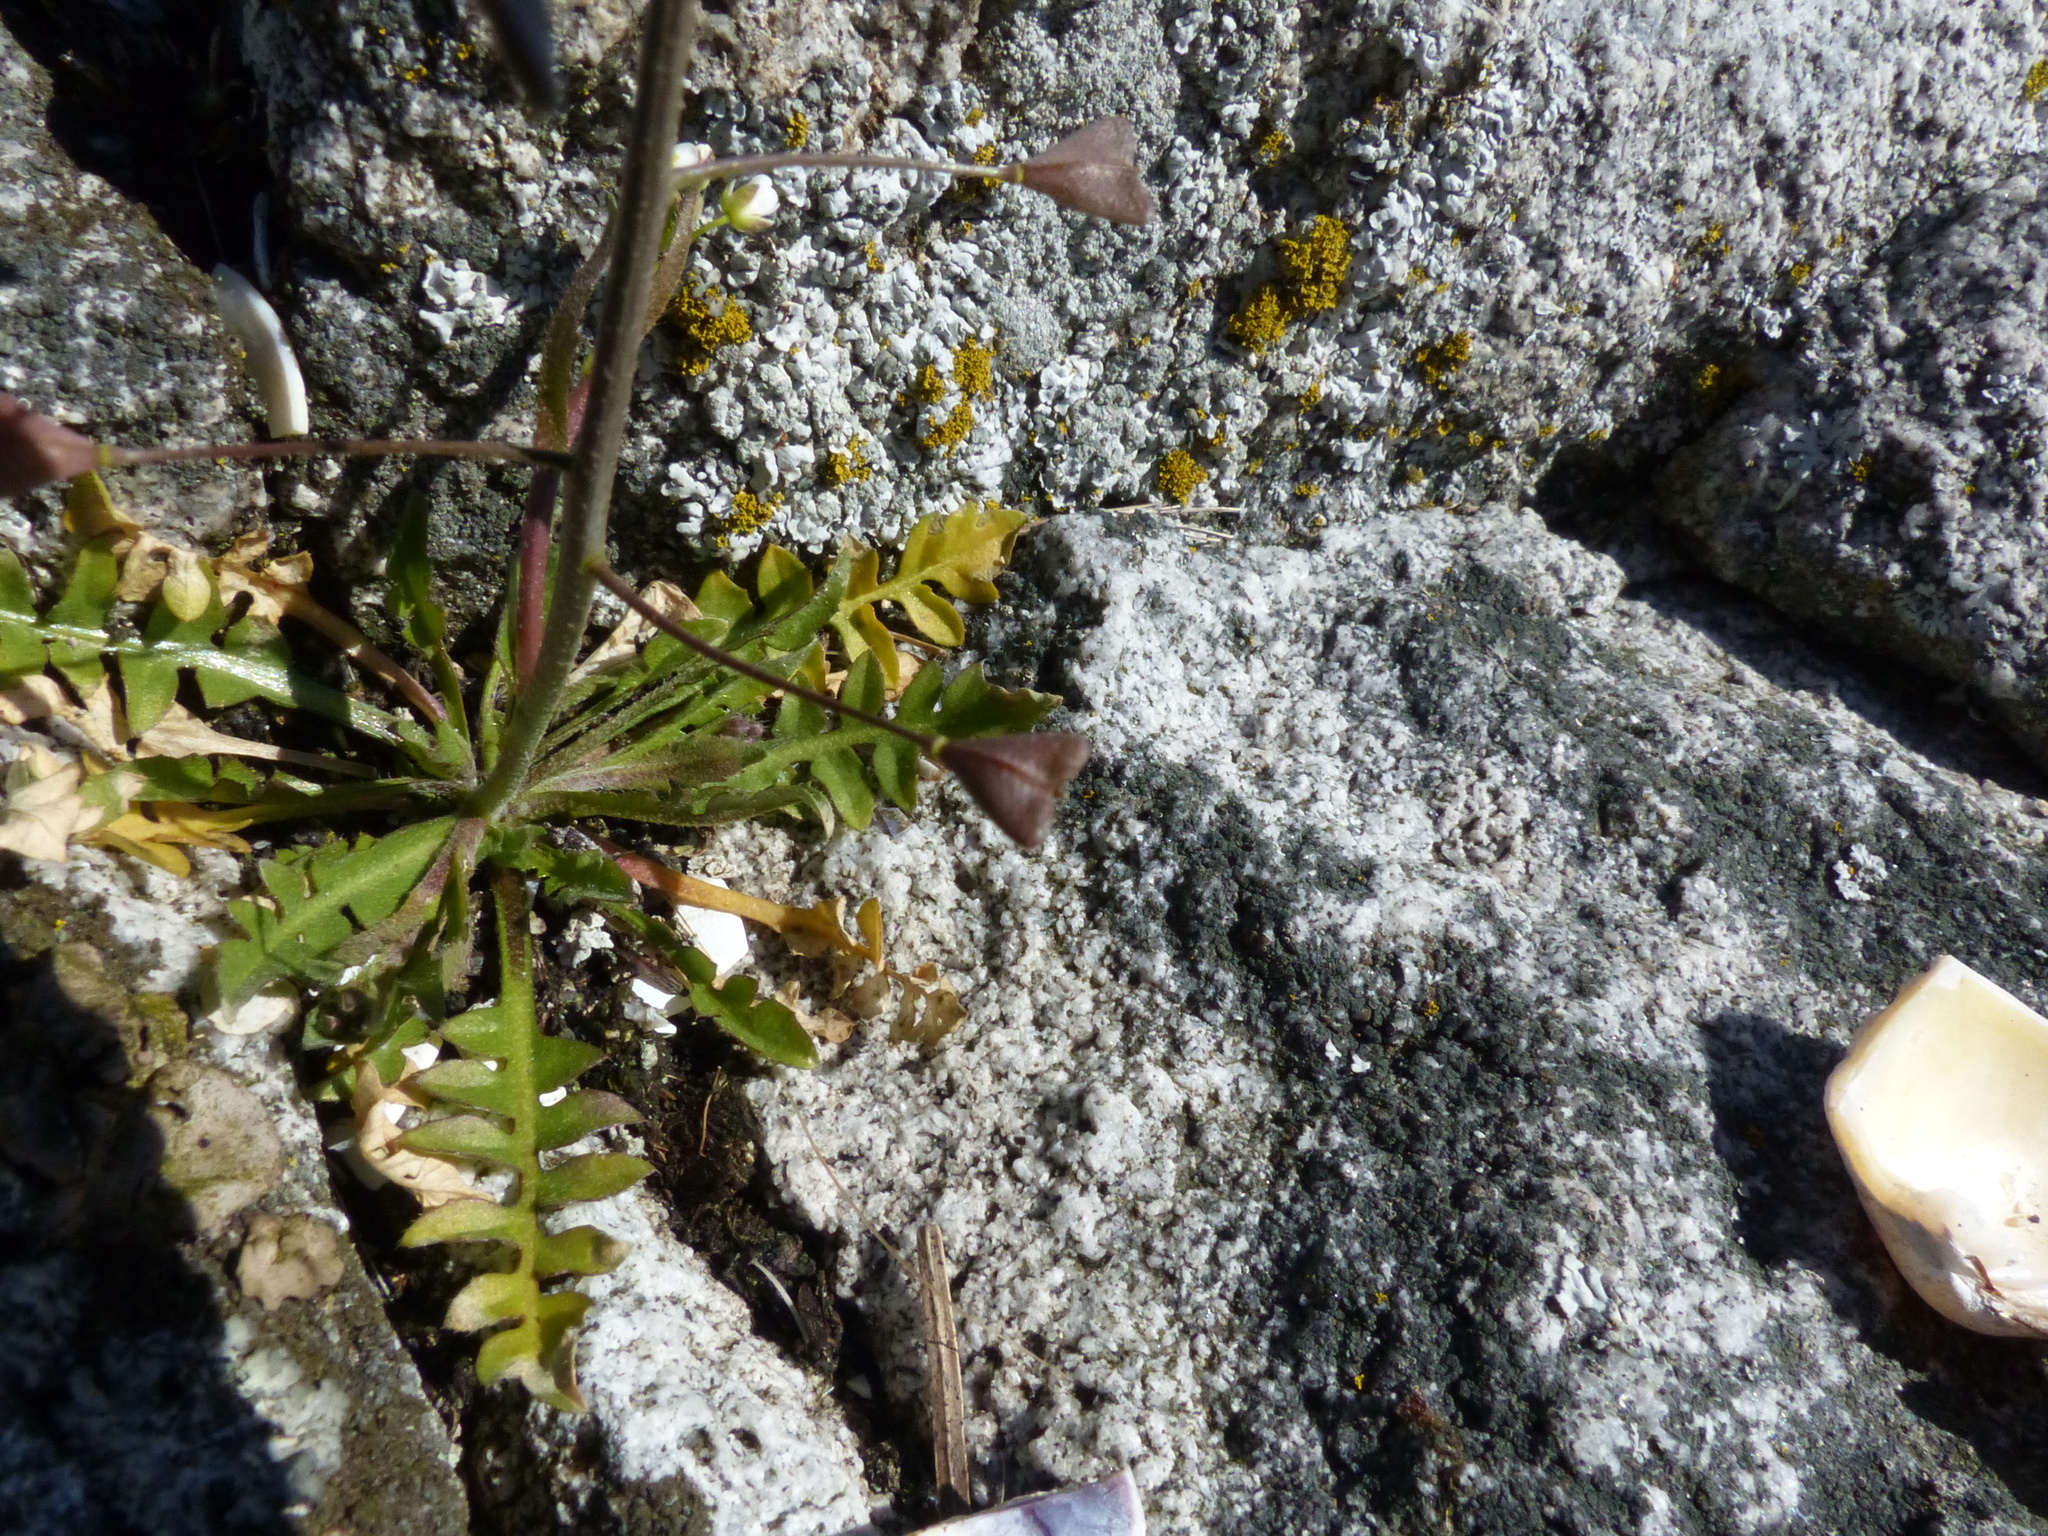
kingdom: Plantae
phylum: Tracheophyta
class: Magnoliopsida
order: Brassicales
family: Brassicaceae
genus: Capsella
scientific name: Capsella bursa-pastoris
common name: Shepherd's purse
